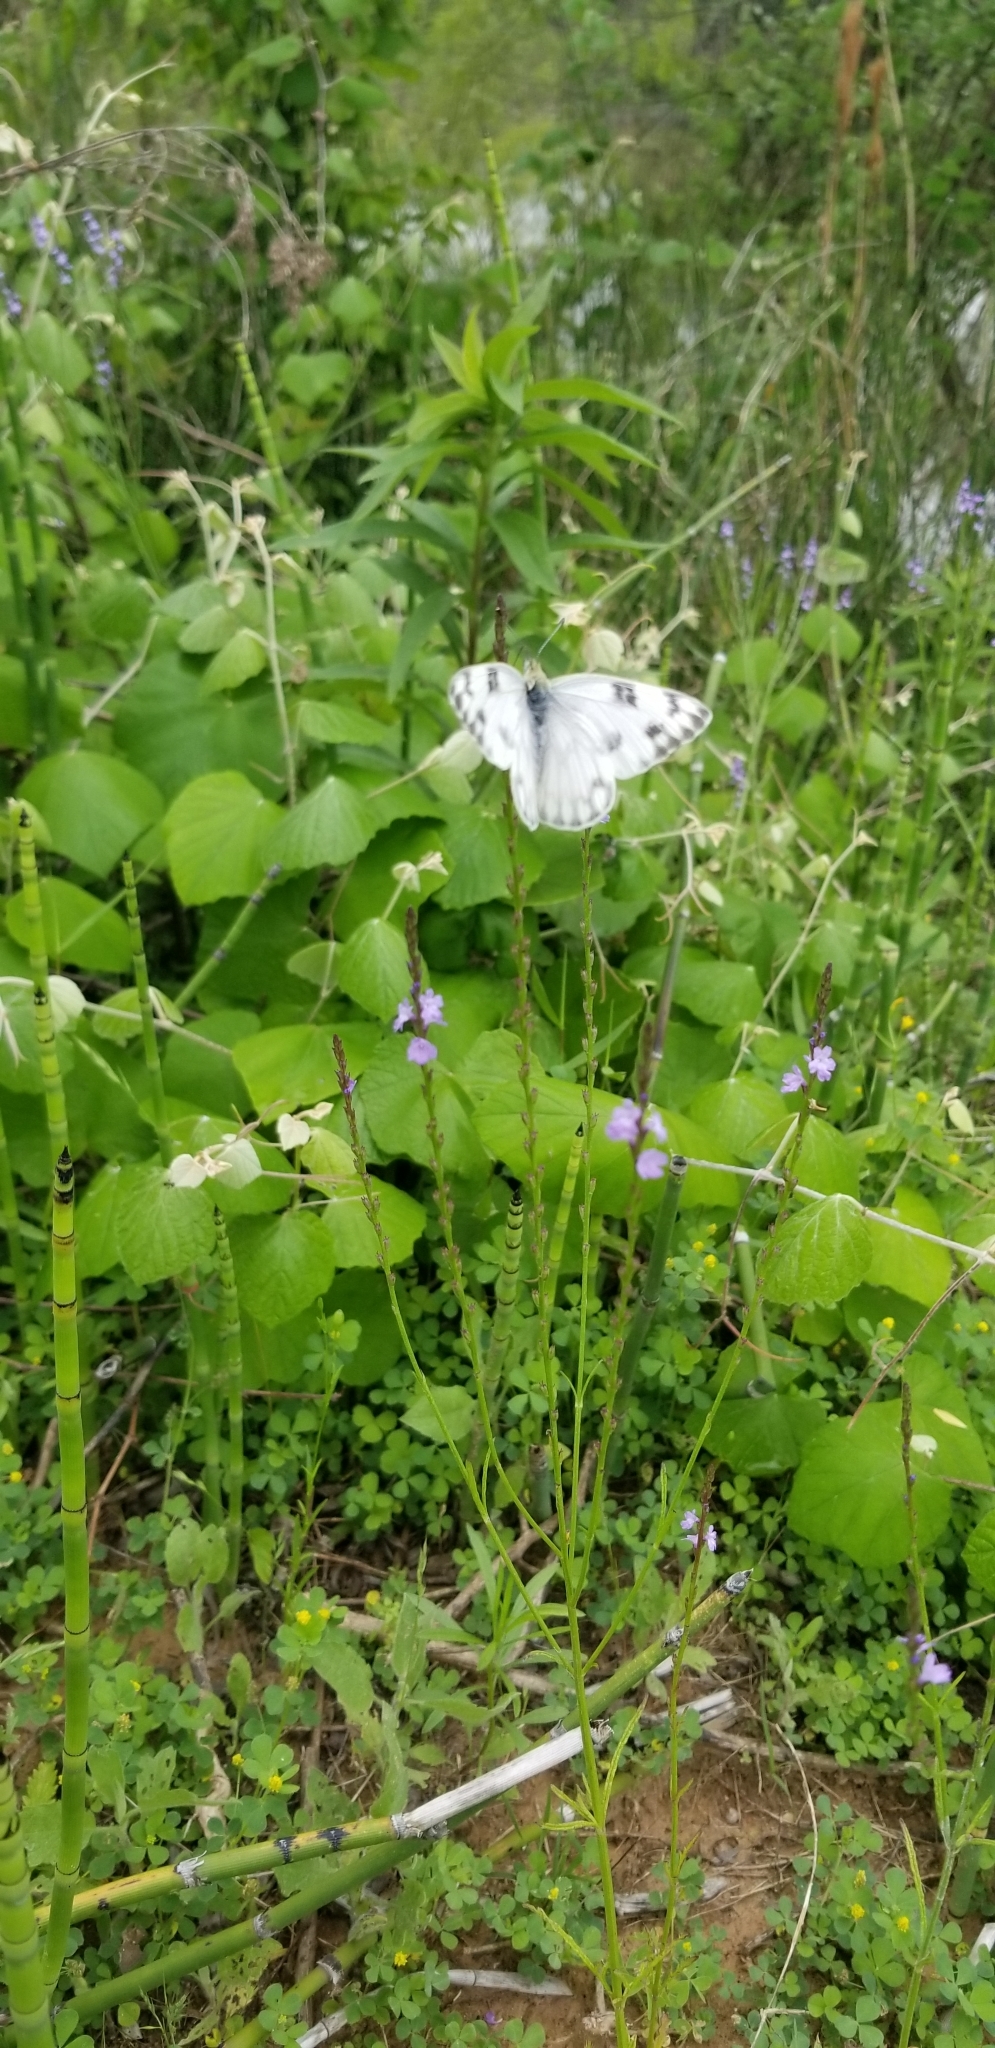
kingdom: Animalia
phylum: Arthropoda
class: Insecta
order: Lepidoptera
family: Pieridae
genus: Pontia
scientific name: Pontia protodice
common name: Checkered white
